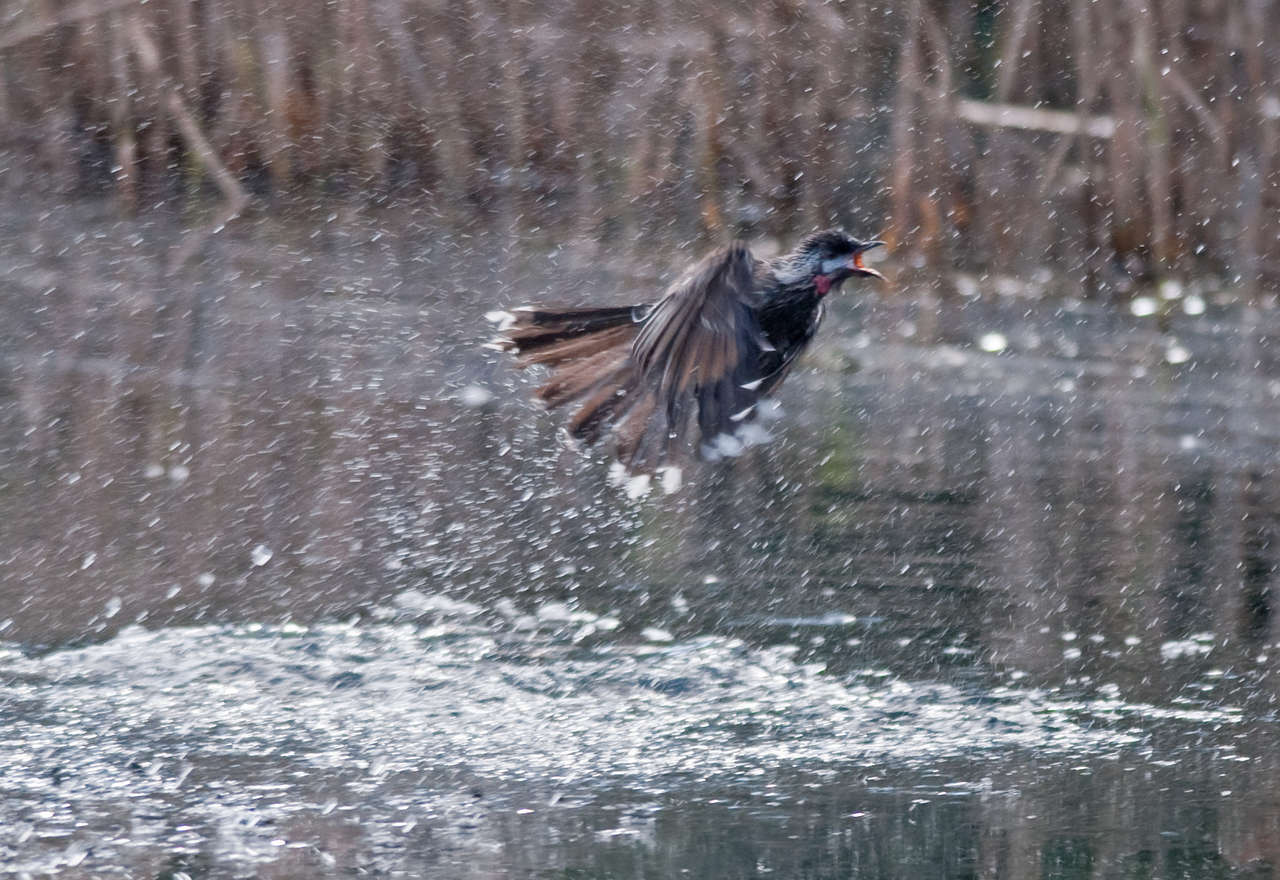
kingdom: Animalia
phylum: Chordata
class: Aves
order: Passeriformes
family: Meliphagidae
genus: Anthochaera
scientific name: Anthochaera carunculata
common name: Red wattlebird
